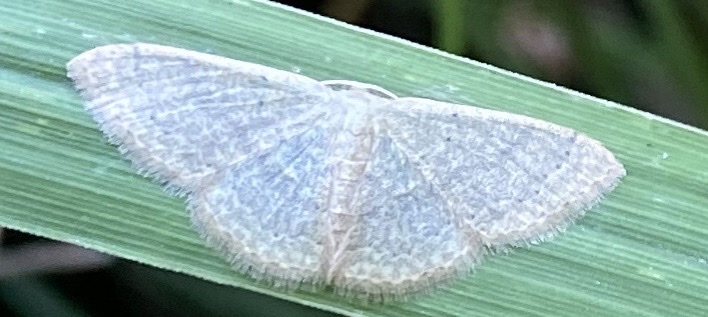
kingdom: Animalia
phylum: Arthropoda
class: Insecta
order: Lepidoptera
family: Geometridae
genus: Pleuroprucha
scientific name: Pleuroprucha insulsaria
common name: Common tan wave
